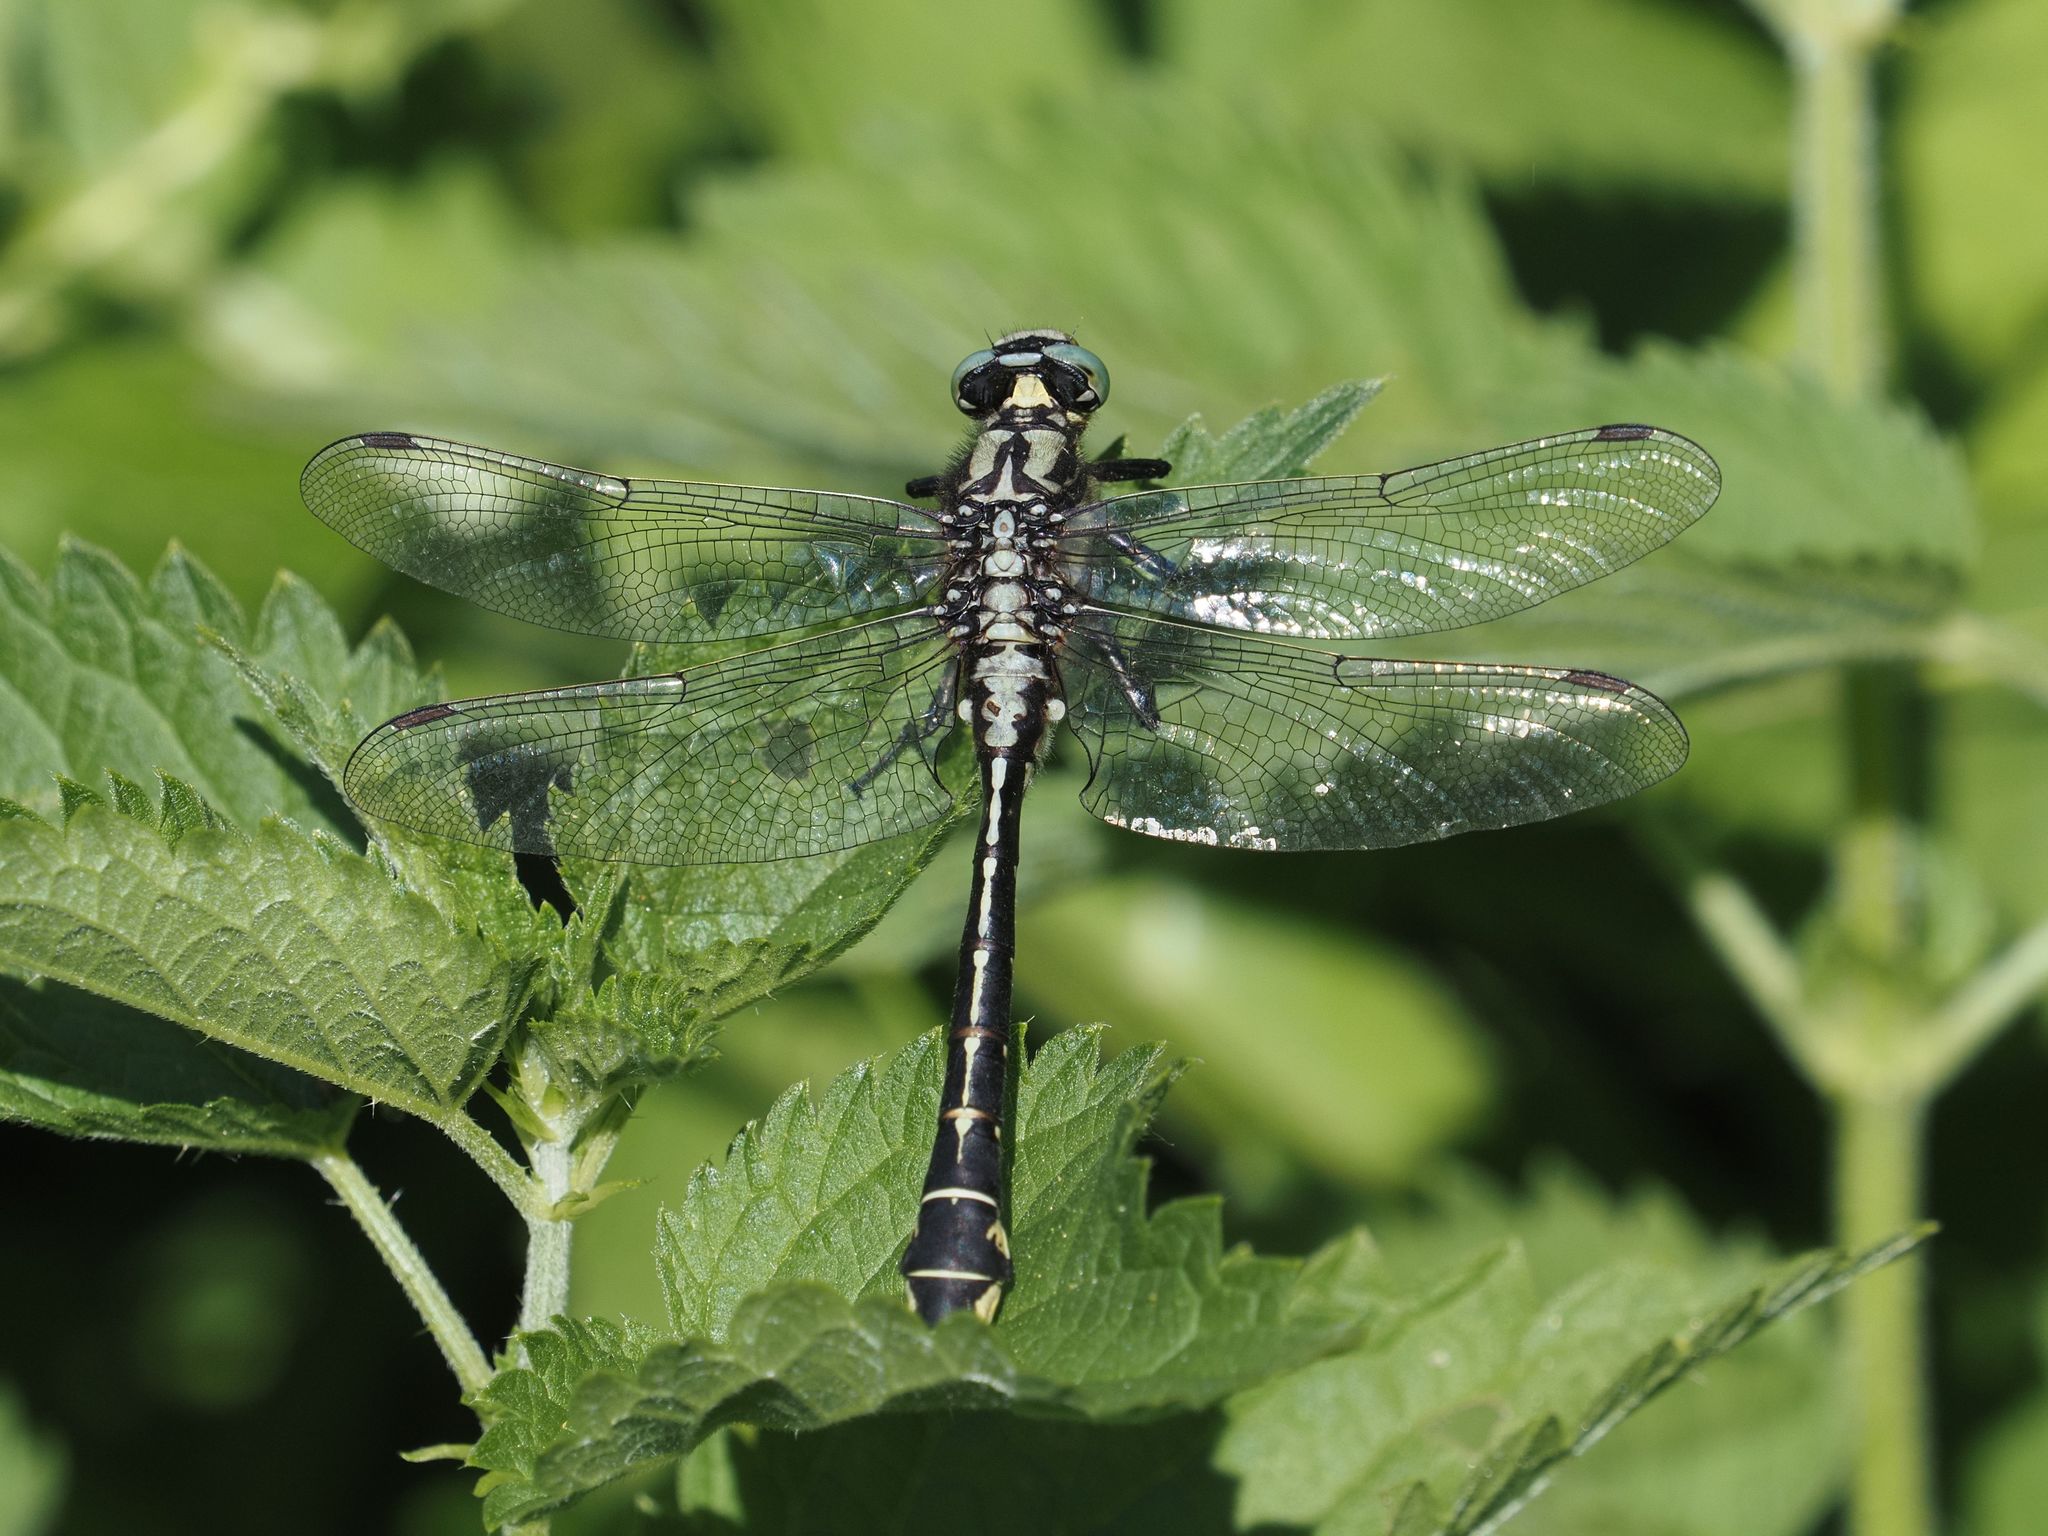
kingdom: Animalia
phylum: Arthropoda
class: Insecta
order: Odonata
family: Gomphidae
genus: Gomphus
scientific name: Gomphus vulgatissimus
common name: Club-tailed dragonfly
